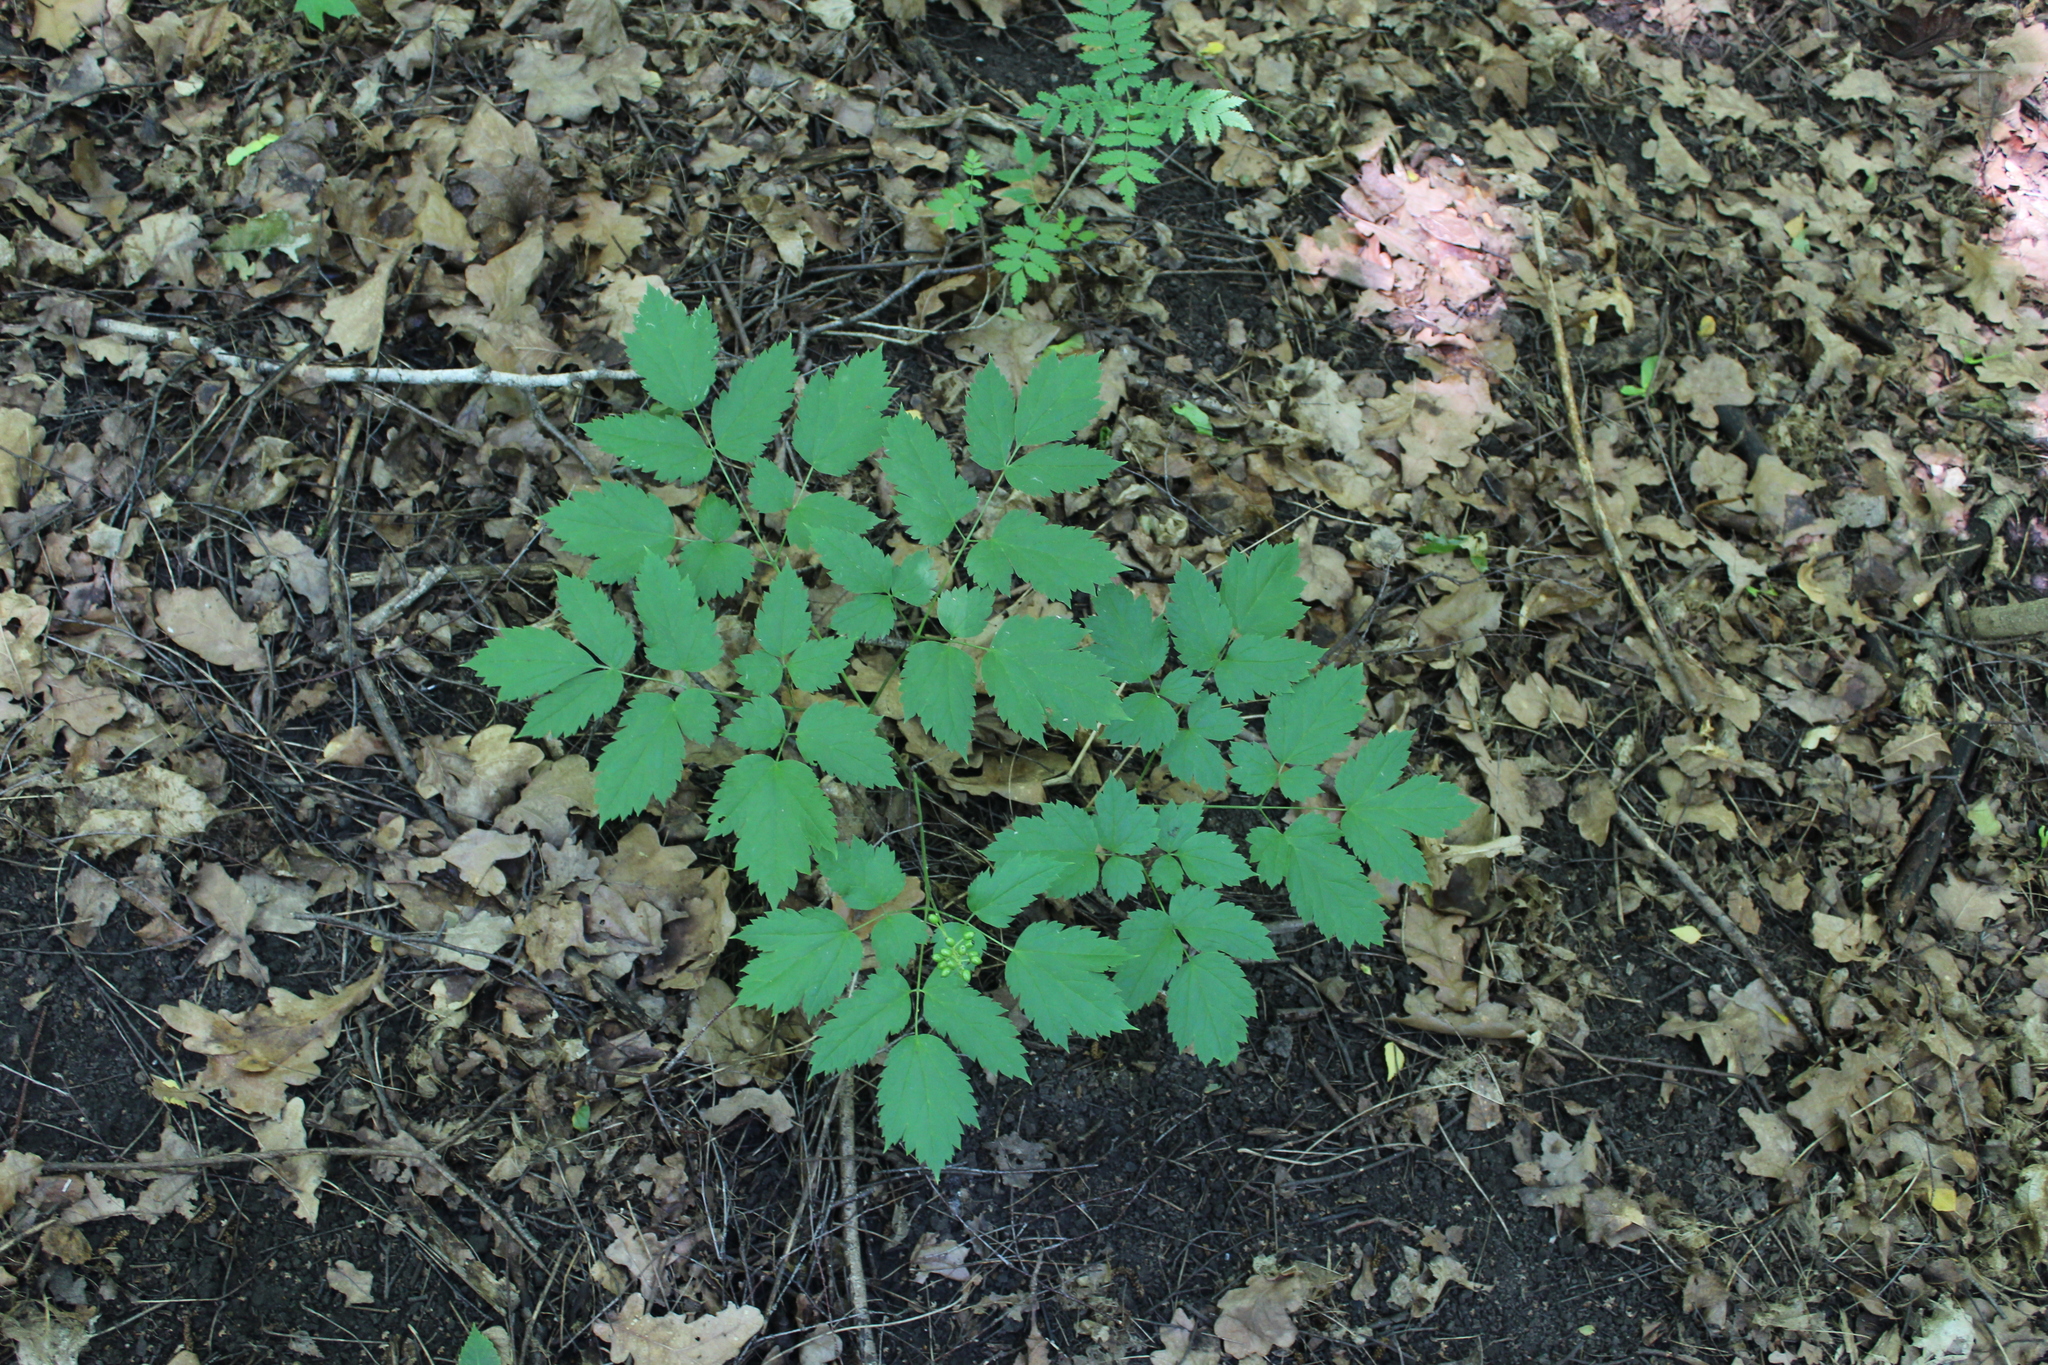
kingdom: Plantae
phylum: Tracheophyta
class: Magnoliopsida
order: Ranunculales
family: Ranunculaceae
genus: Actaea
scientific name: Actaea spicata
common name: Baneberry
